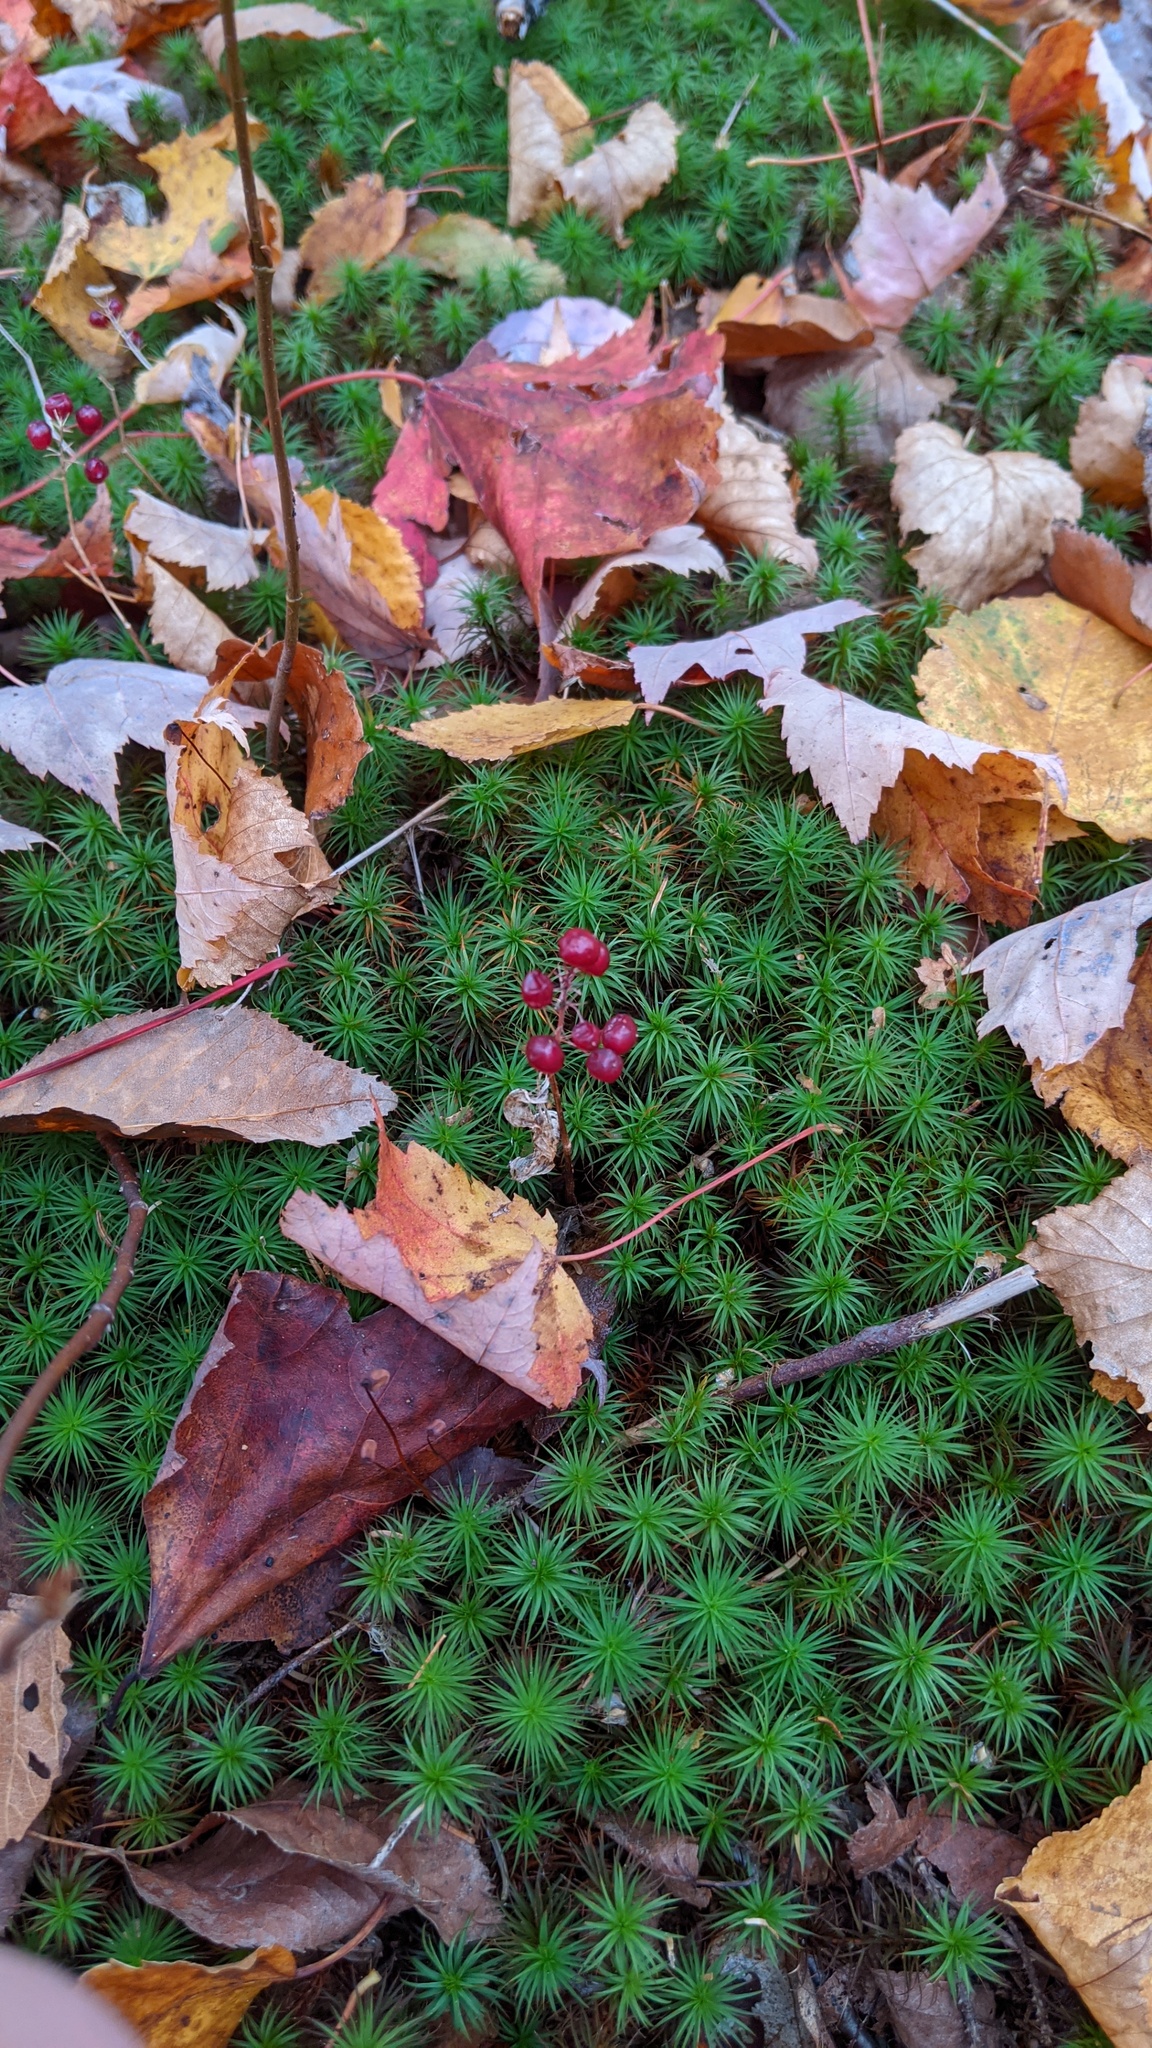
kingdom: Plantae
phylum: Tracheophyta
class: Liliopsida
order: Asparagales
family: Asparagaceae
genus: Maianthemum
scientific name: Maianthemum canadense
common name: False lily-of-the-valley
